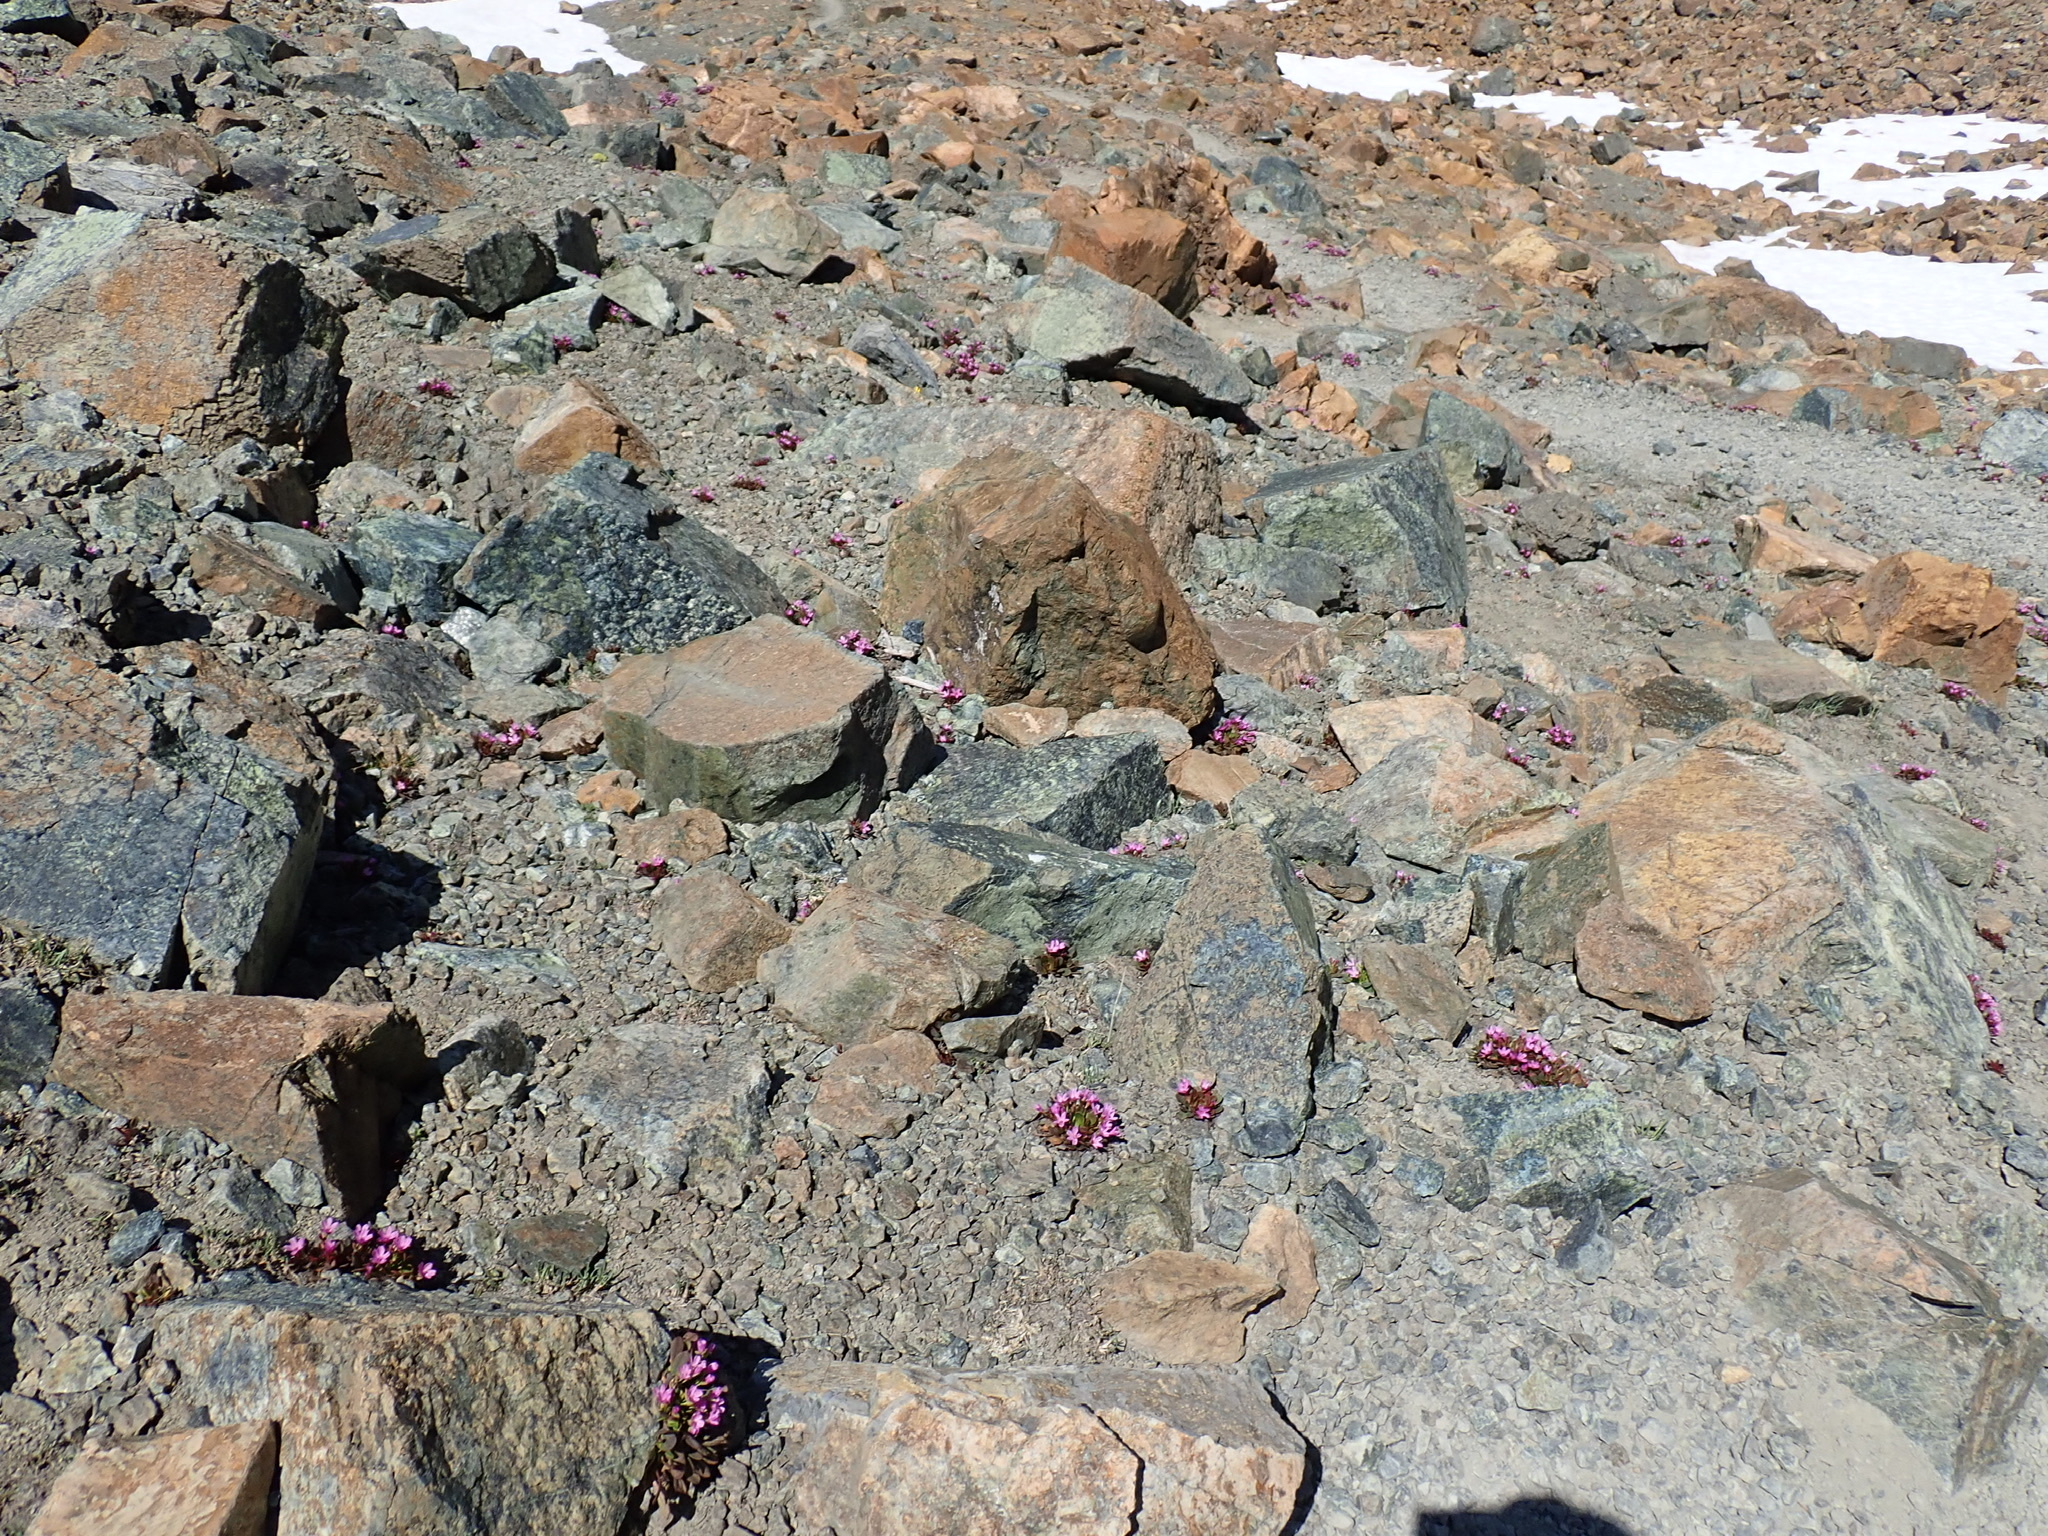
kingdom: Plantae
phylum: Tracheophyta
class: Magnoliopsida
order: Caryophyllales
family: Montiaceae
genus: Claytonia
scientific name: Claytonia megarhiza
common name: Alpine spring beauty
